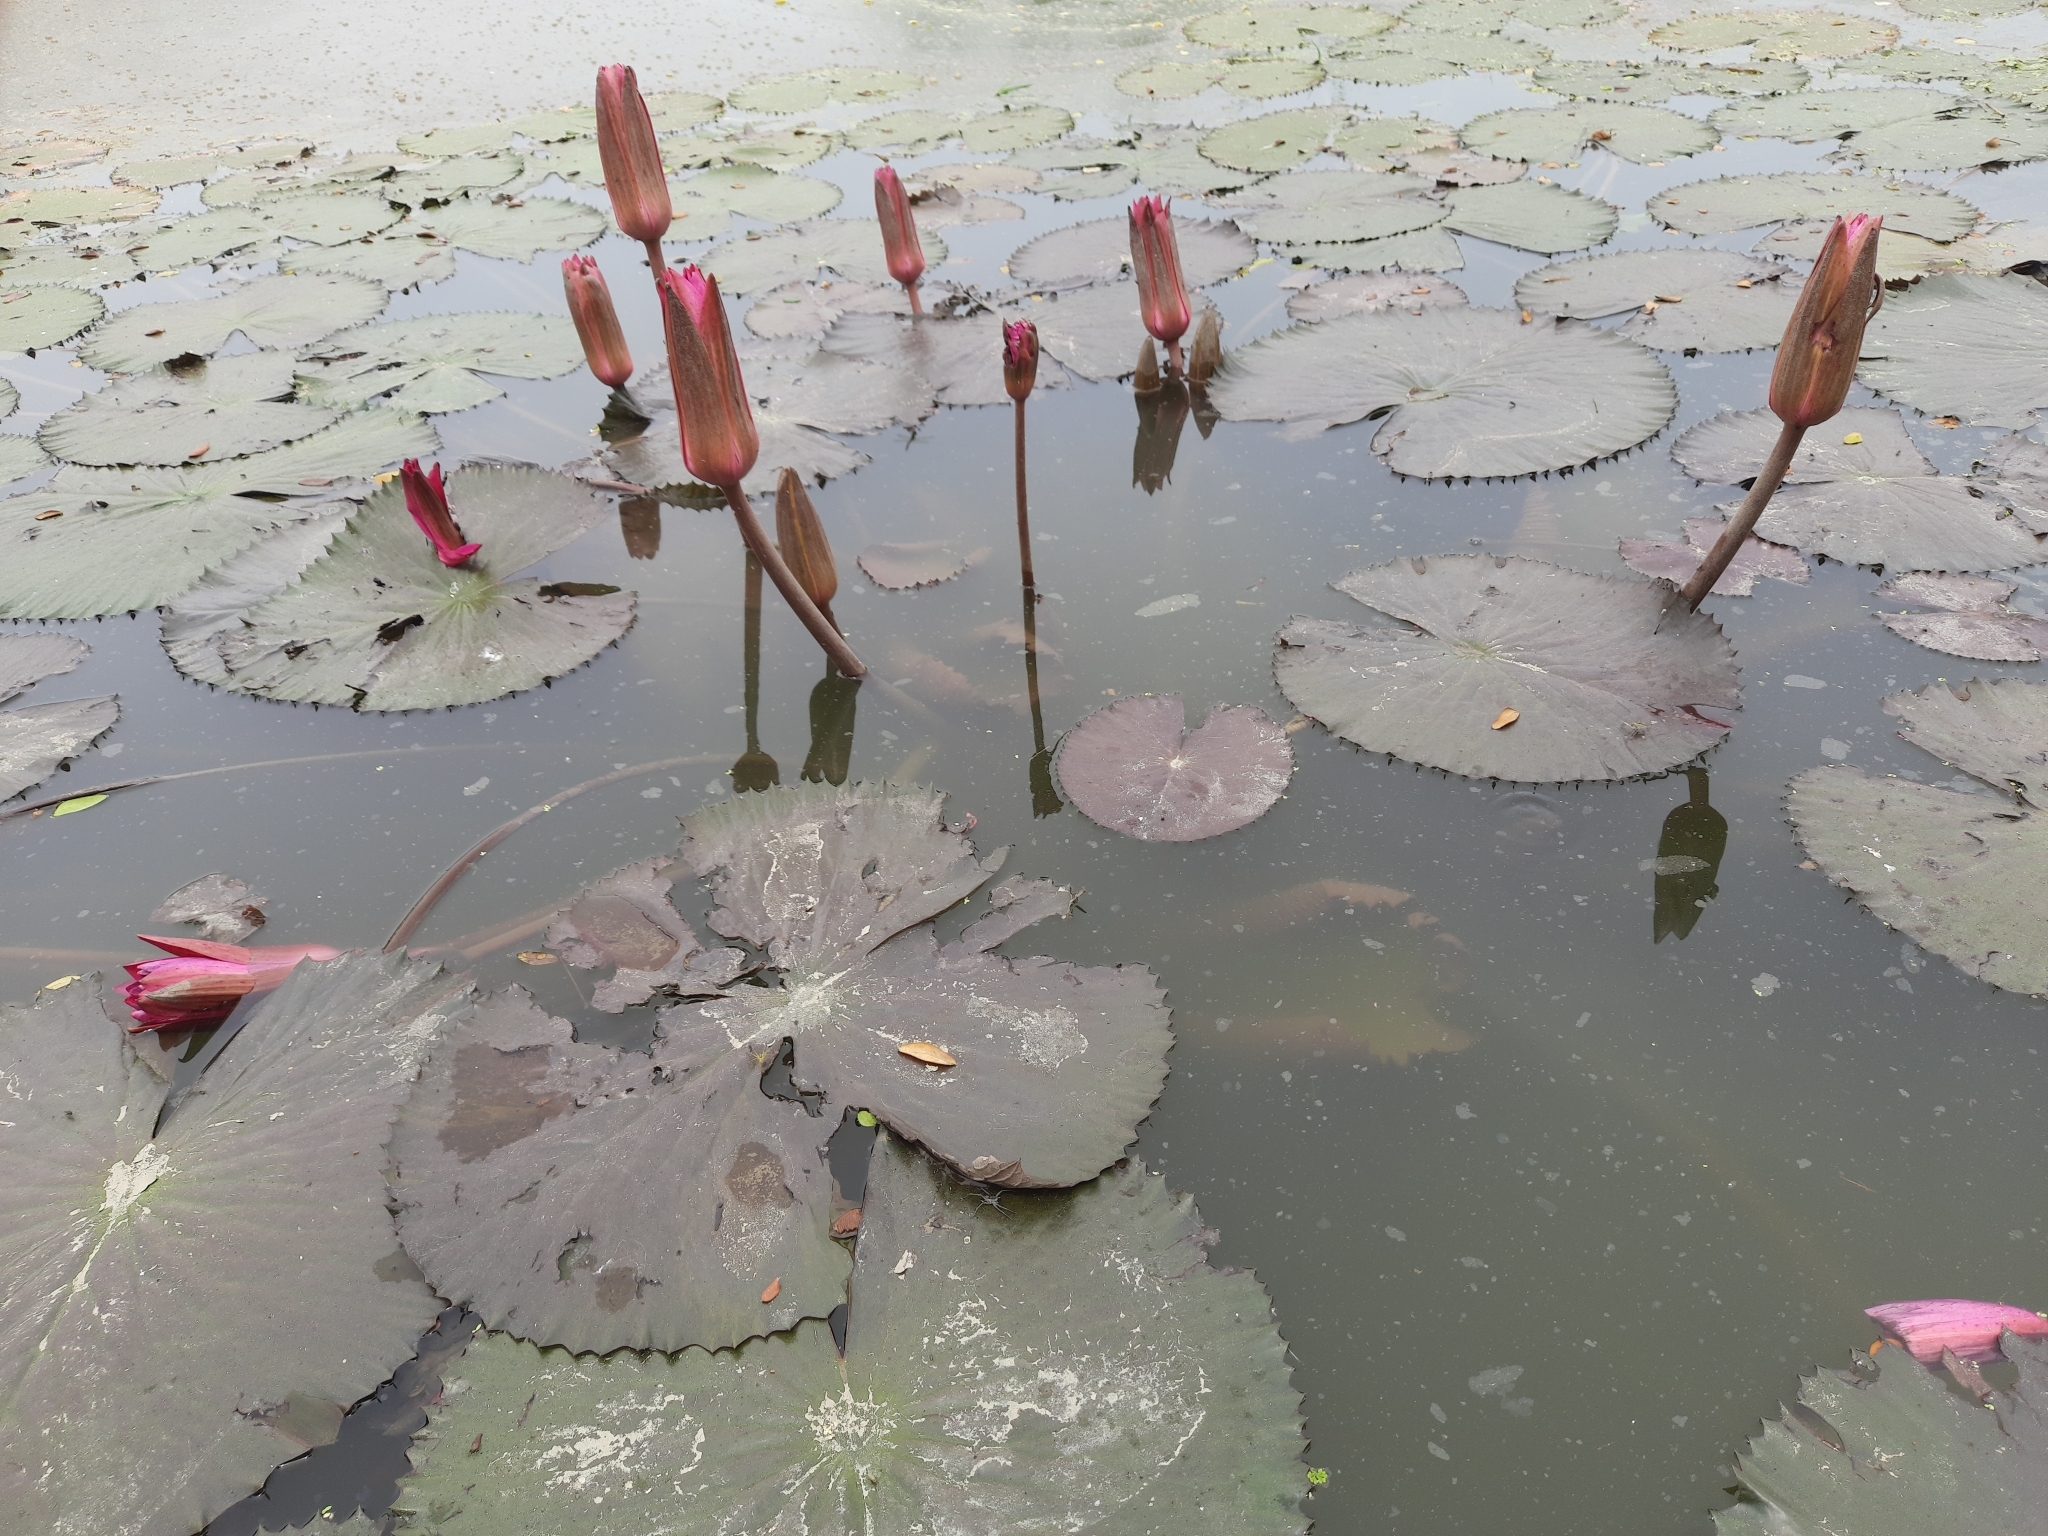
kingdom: Plantae
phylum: Tracheophyta
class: Magnoliopsida
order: Nymphaeales
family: Nymphaeaceae
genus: Nymphaea
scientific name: Nymphaea rubra
